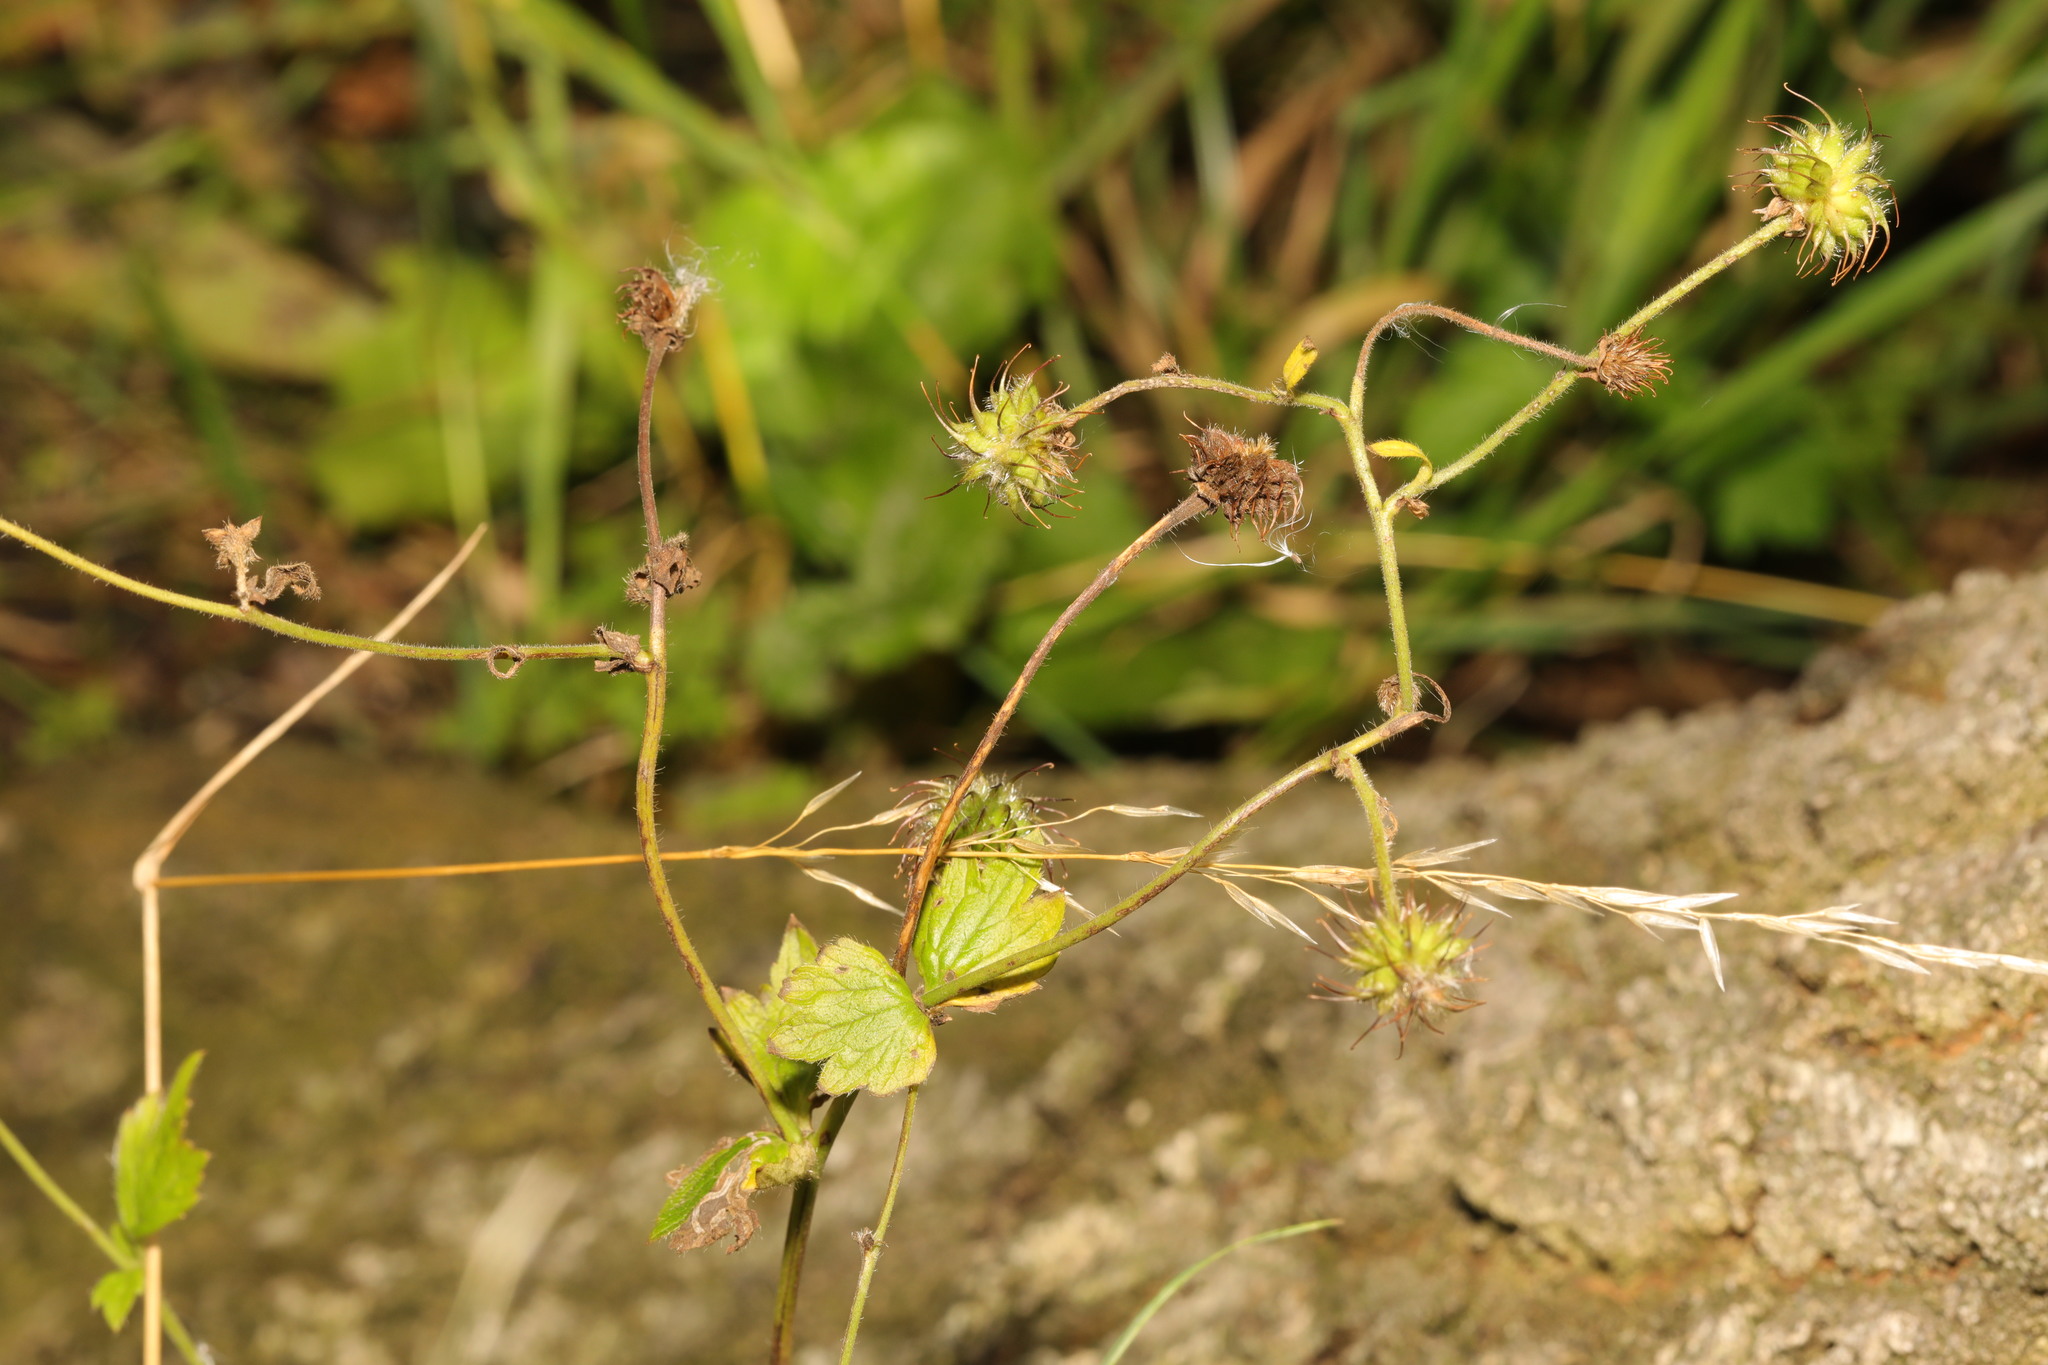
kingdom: Plantae
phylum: Tracheophyta
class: Magnoliopsida
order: Rosales
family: Rosaceae
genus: Geum
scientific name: Geum urbanum
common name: Wood avens
